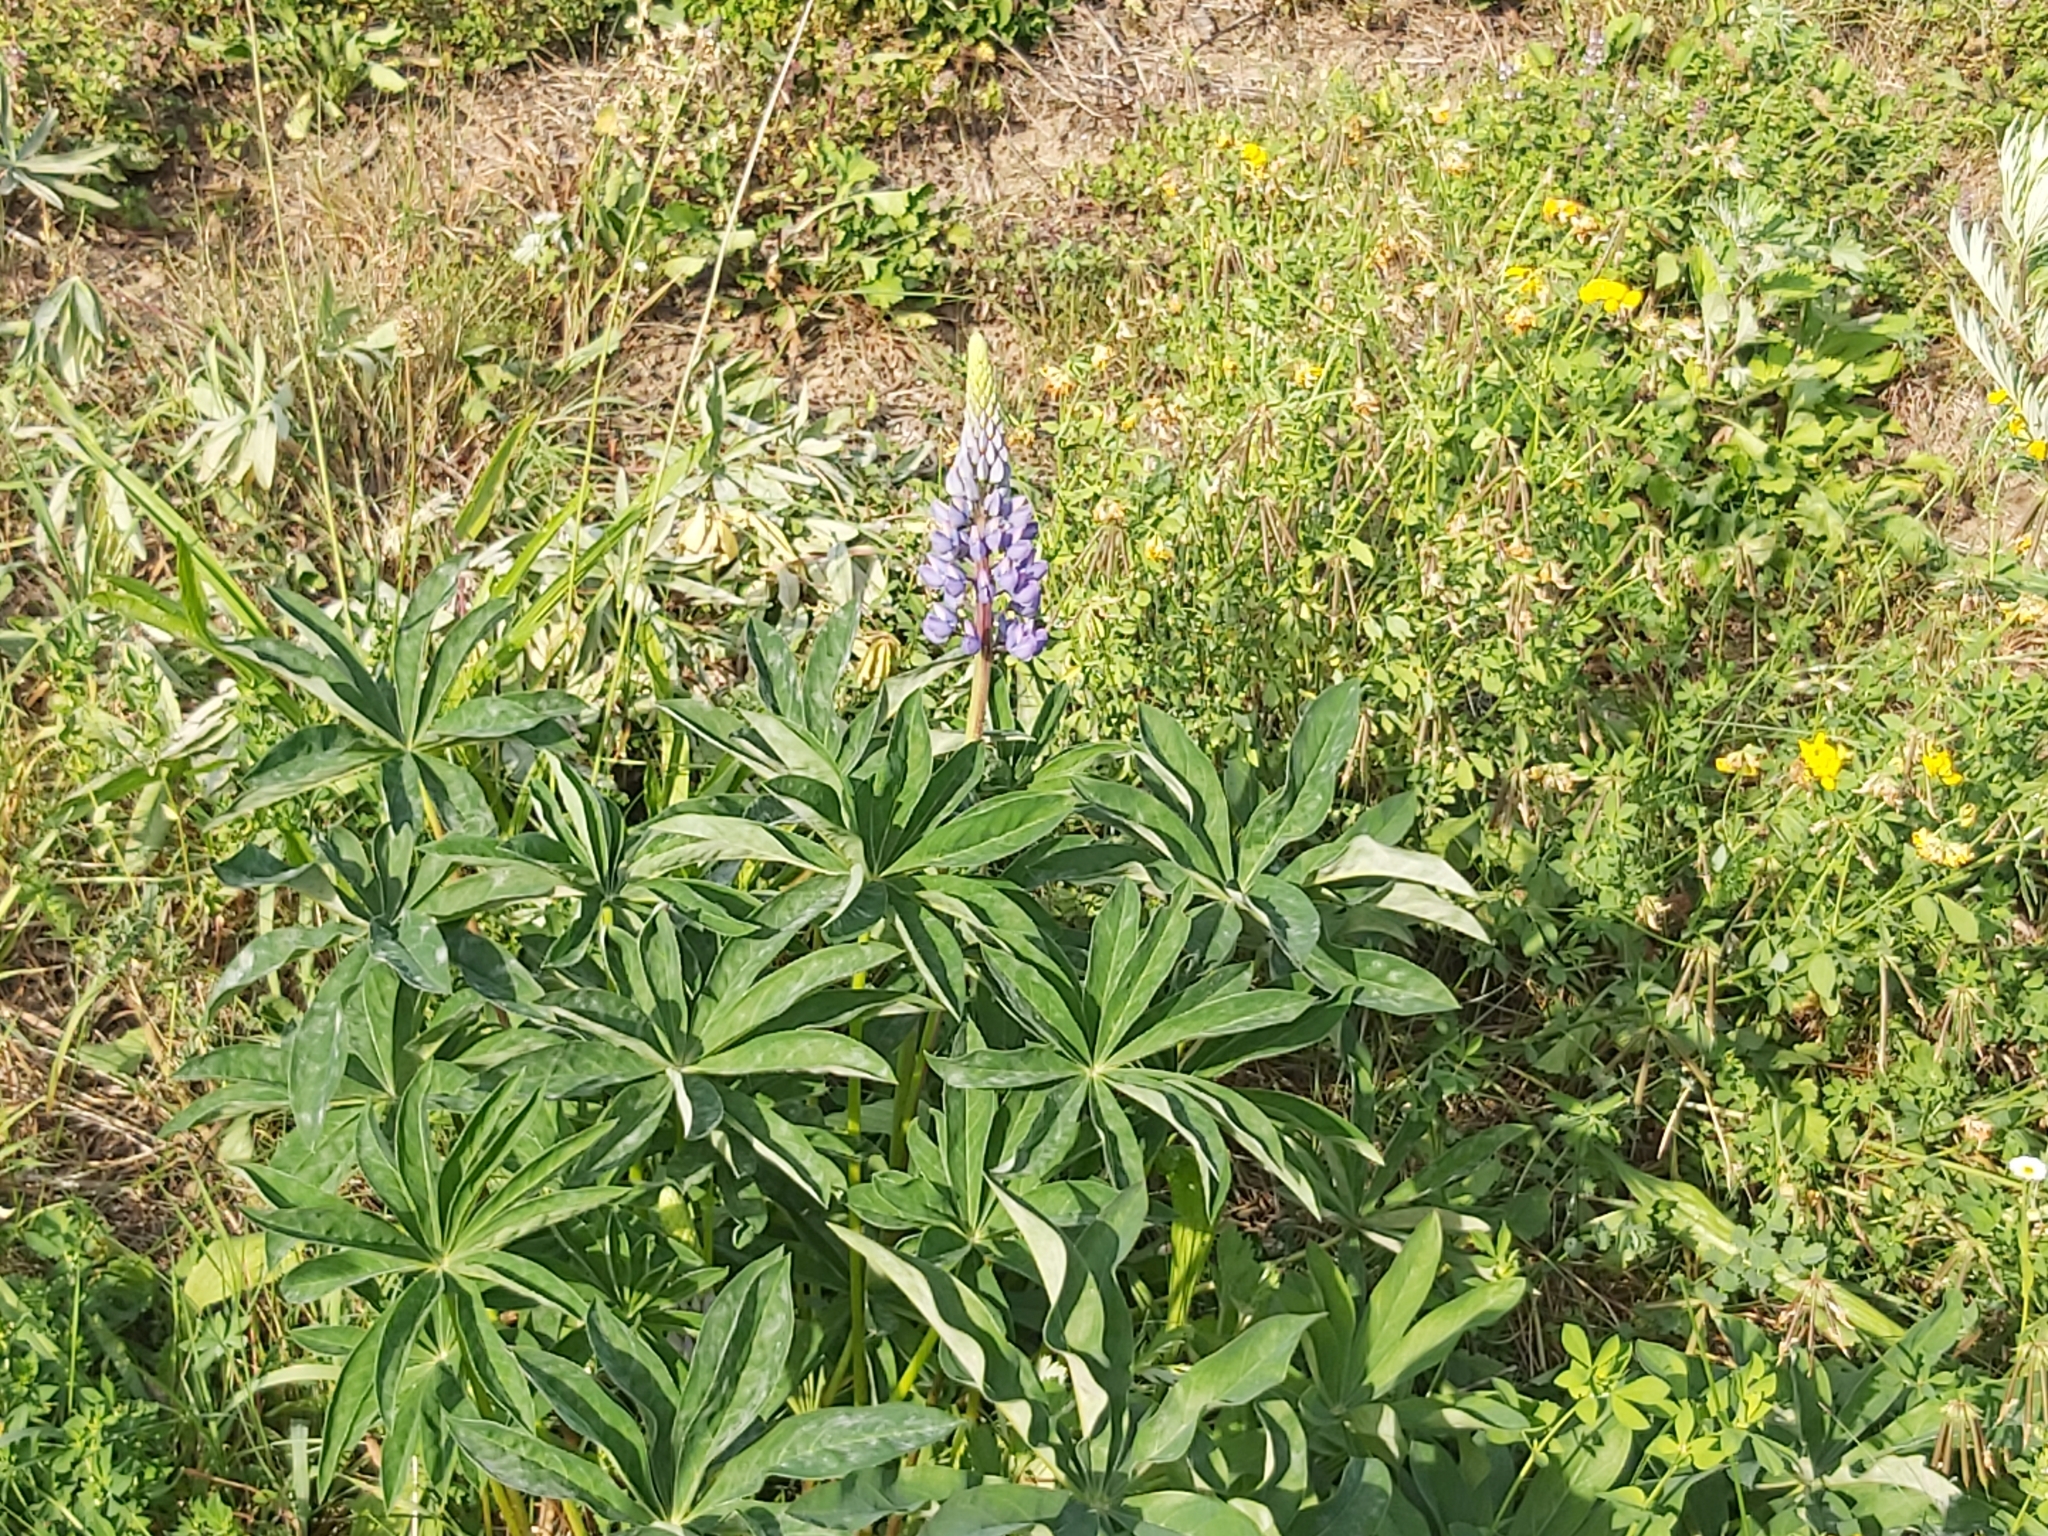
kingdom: Plantae
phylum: Tracheophyta
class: Magnoliopsida
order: Fabales
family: Fabaceae
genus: Lupinus
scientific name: Lupinus polyphyllus
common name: Garden lupin
